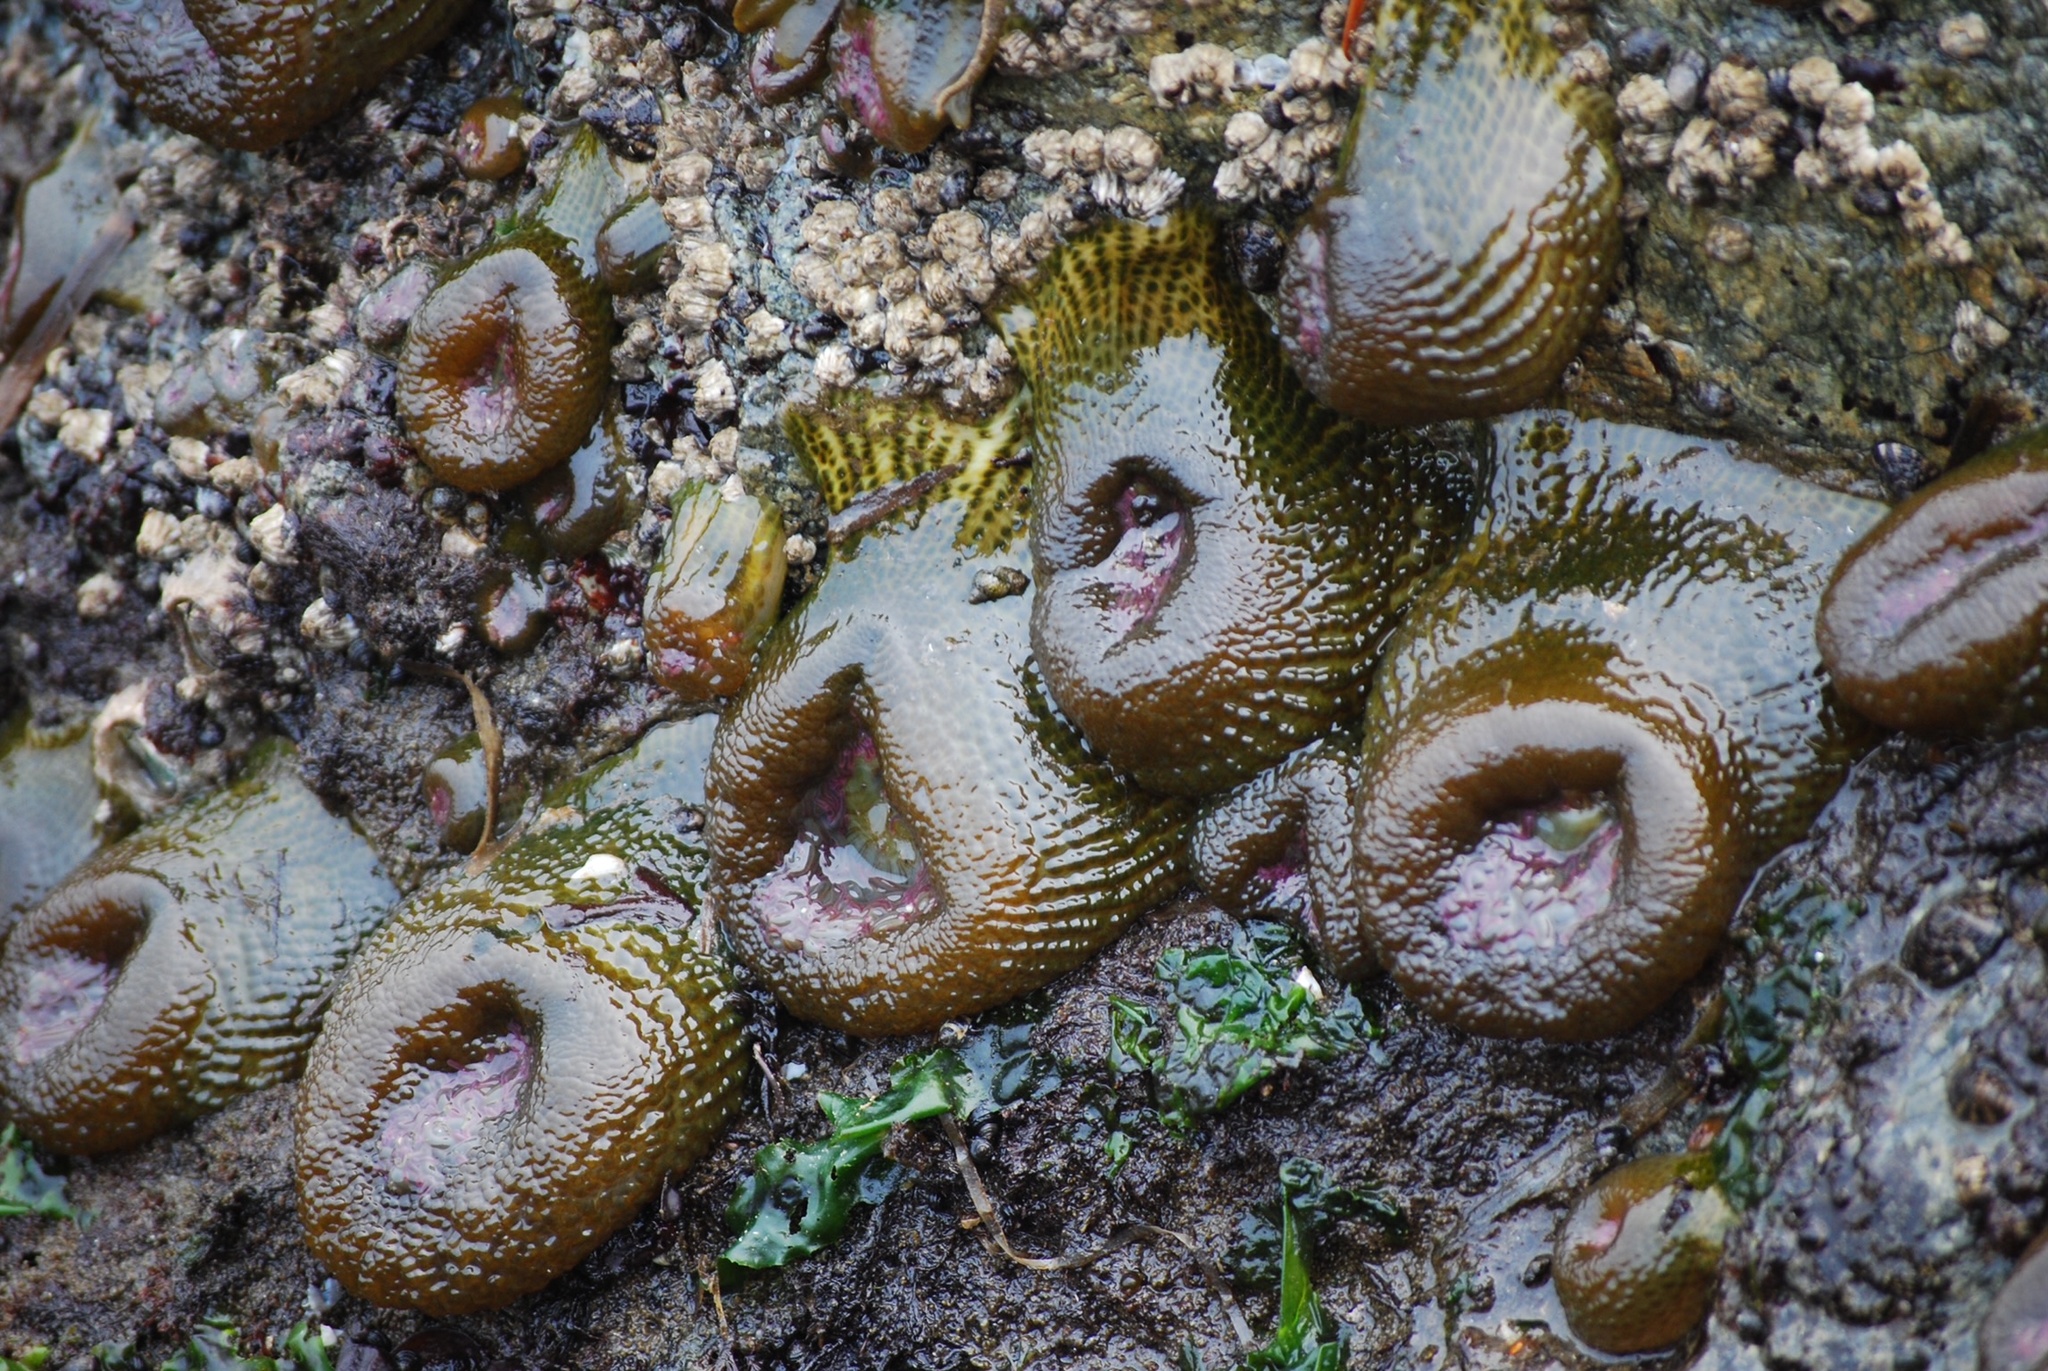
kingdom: Animalia
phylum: Cnidaria
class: Anthozoa
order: Actiniaria
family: Actiniidae
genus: Anthopleura
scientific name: Anthopleura elegantissima
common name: Clonal anemone
